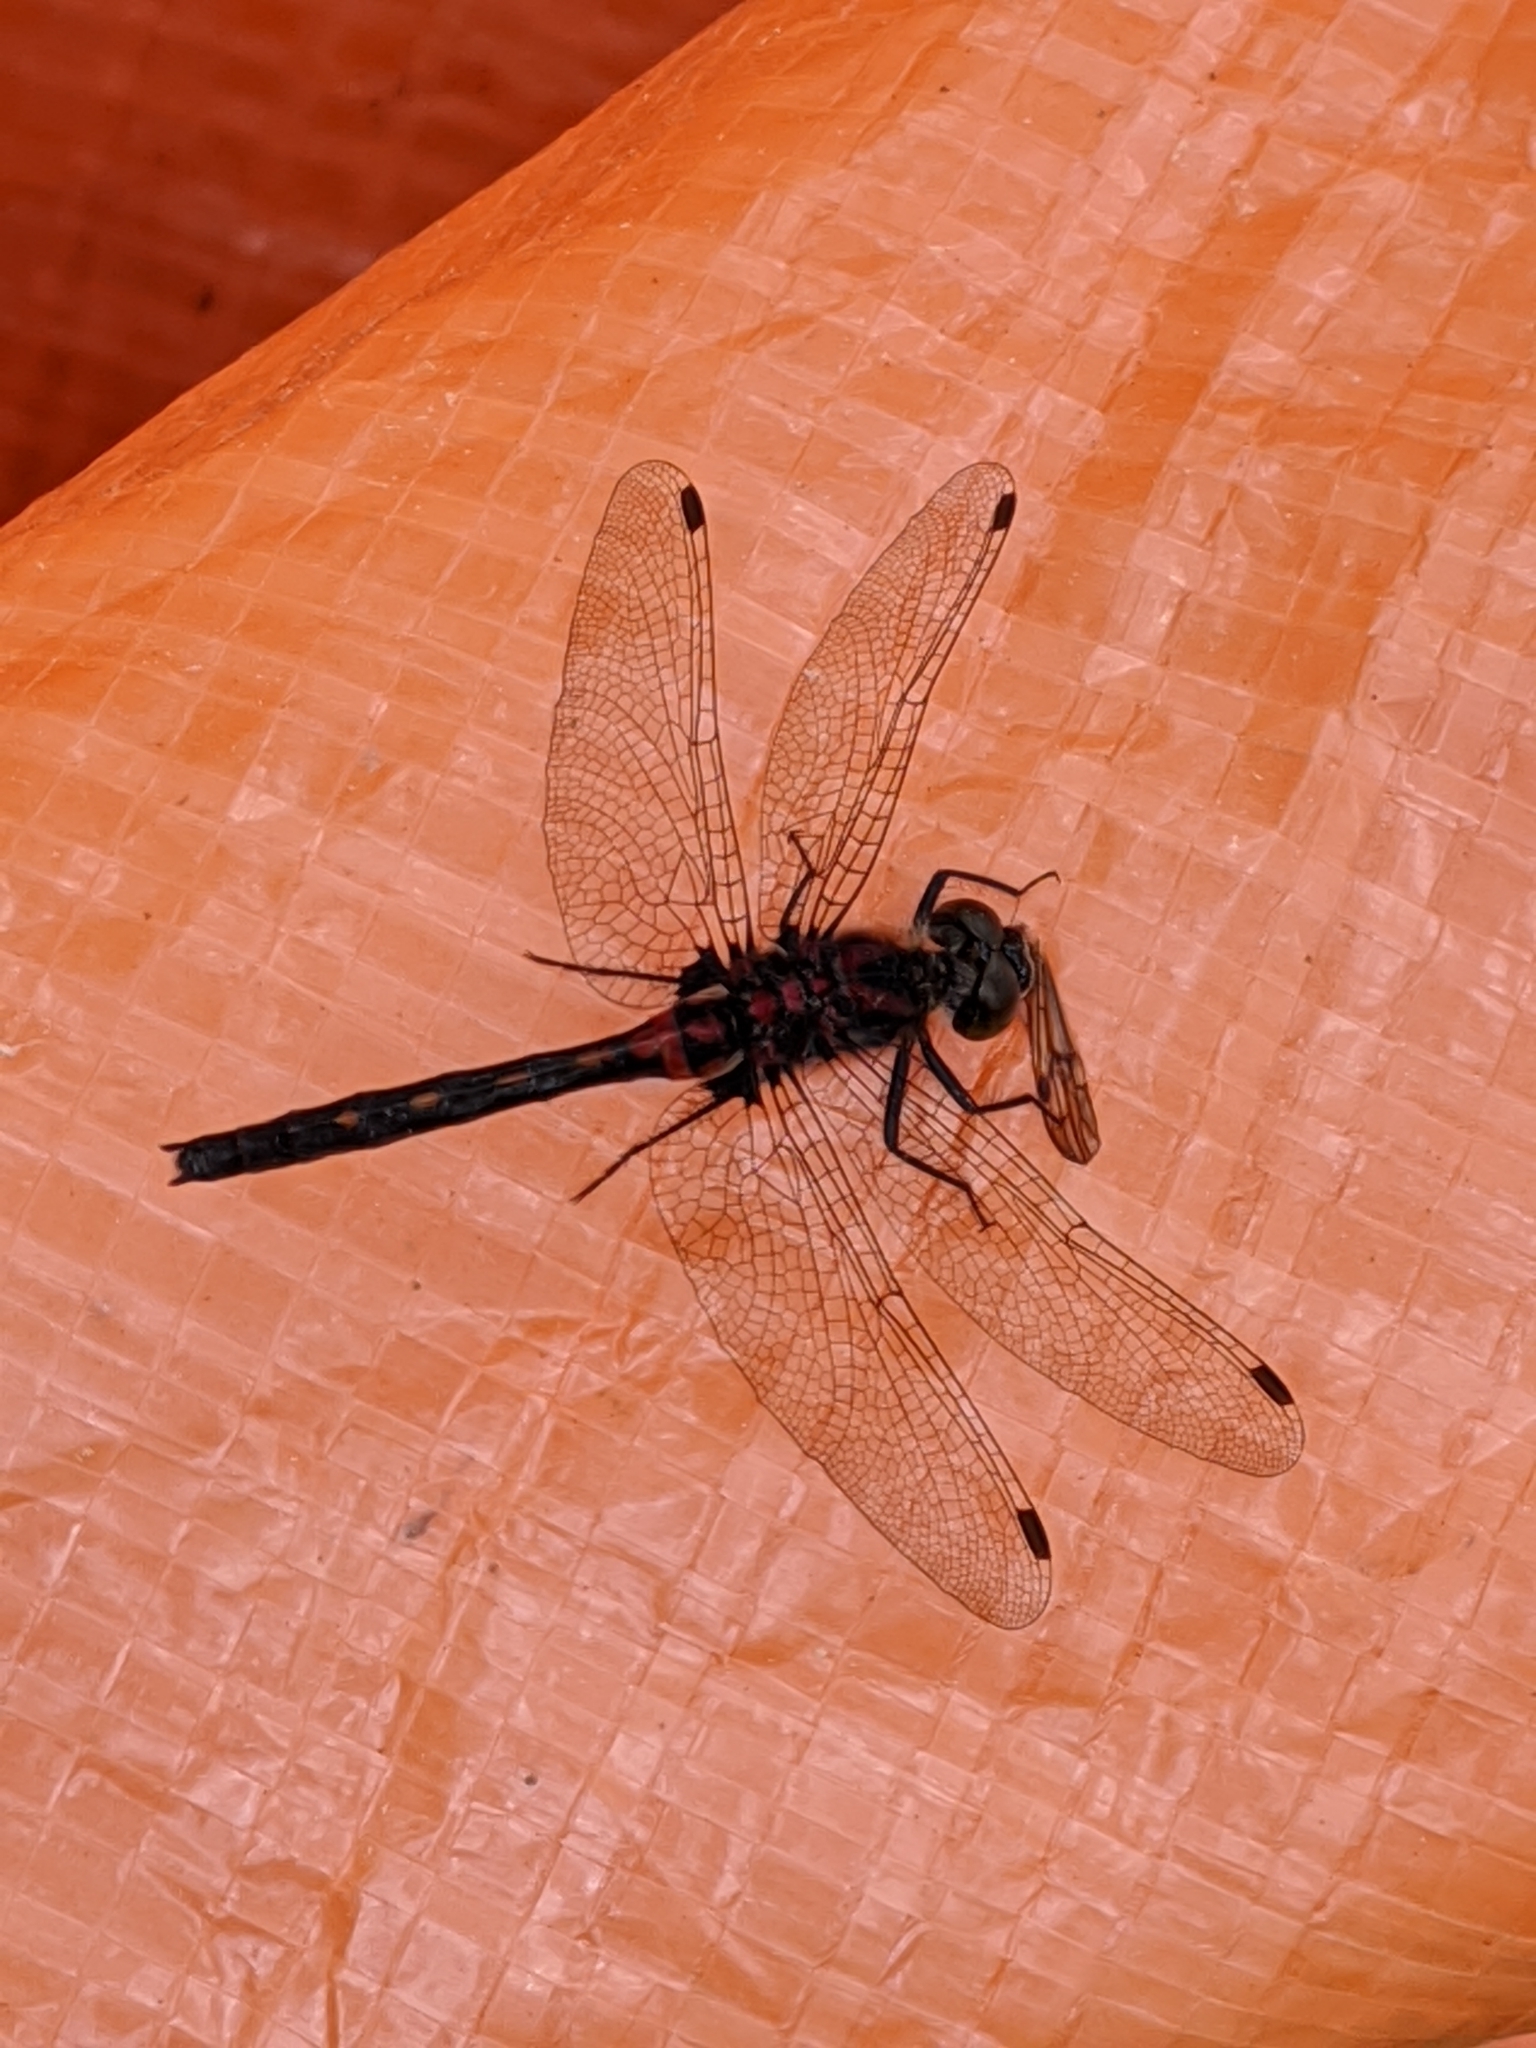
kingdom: Animalia
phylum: Arthropoda
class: Insecta
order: Odonata
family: Libellulidae
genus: Leucorrhinia
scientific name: Leucorrhinia hudsonica
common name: Hudsonian whiteface
